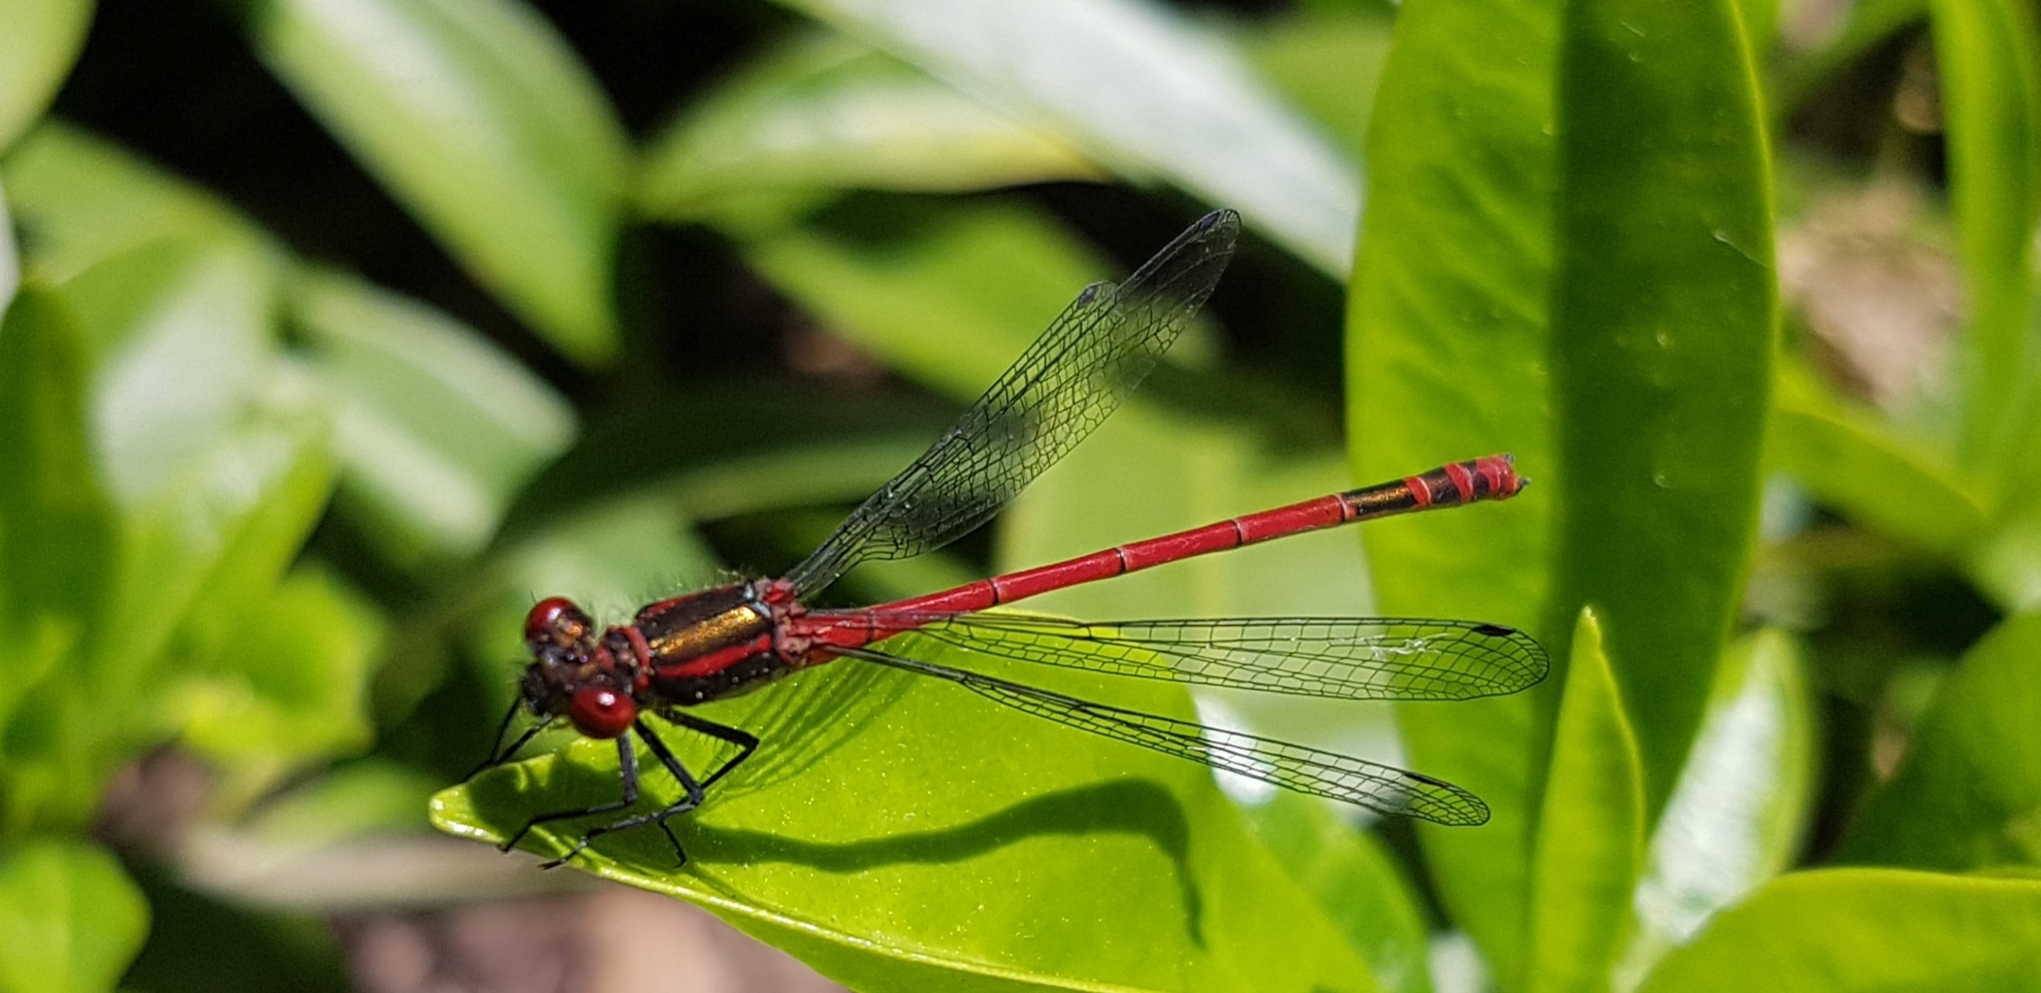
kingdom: Animalia
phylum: Arthropoda
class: Insecta
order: Odonata
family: Coenagrionidae
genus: Pyrrhosoma
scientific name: Pyrrhosoma nymphula
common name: Large red damsel
